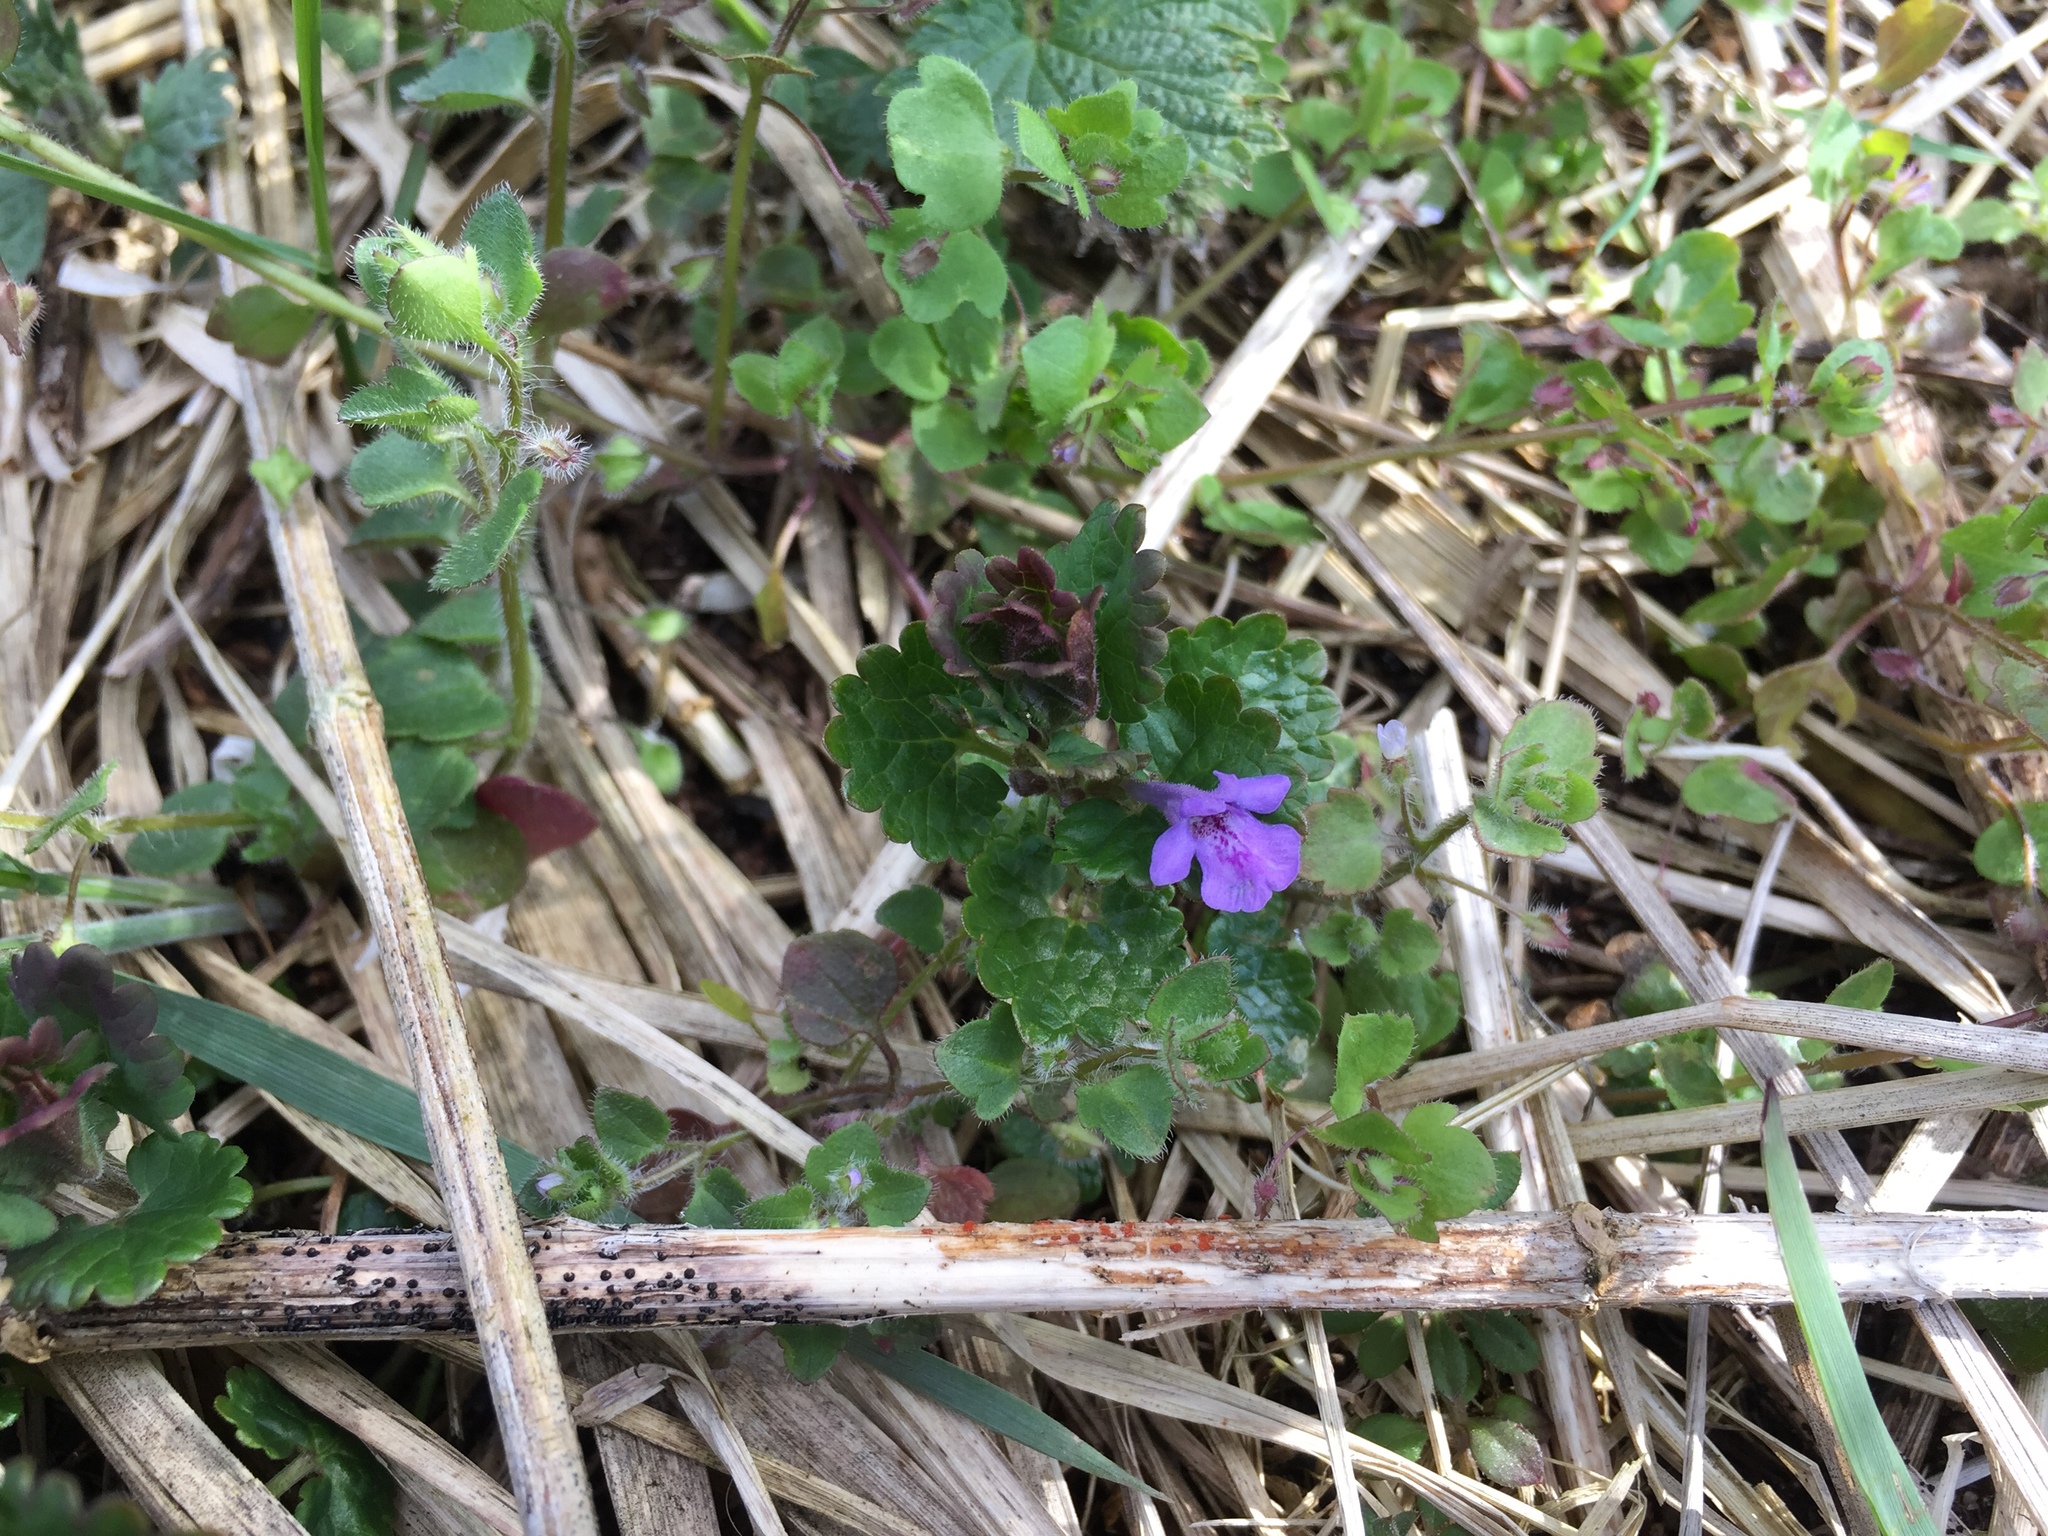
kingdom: Plantae
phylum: Tracheophyta
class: Magnoliopsida
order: Lamiales
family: Lamiaceae
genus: Glechoma
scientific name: Glechoma hederacea
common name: Ground ivy
